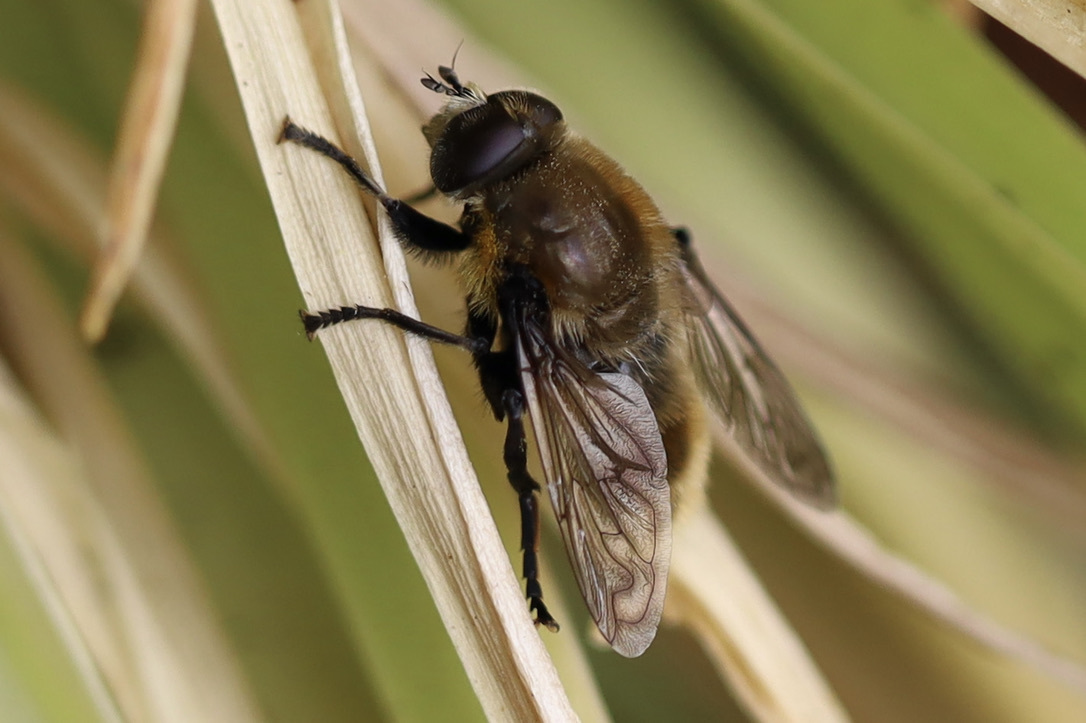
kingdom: Animalia
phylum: Arthropoda
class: Insecta
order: Diptera
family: Syrphidae
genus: Merodon
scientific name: Merodon equestris
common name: Greater bulb-fly
